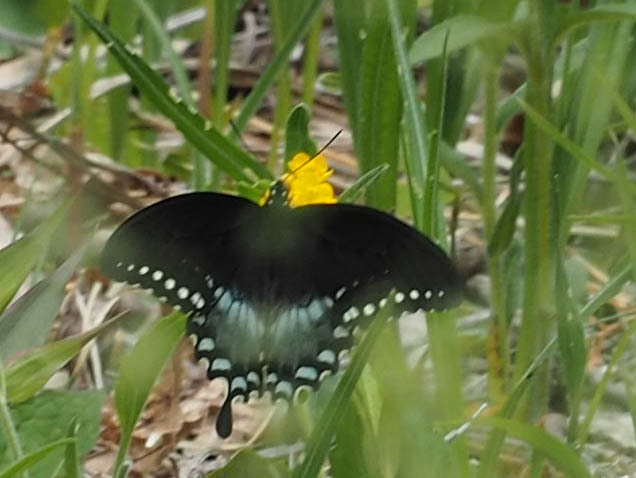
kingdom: Animalia
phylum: Arthropoda
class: Insecta
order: Lepidoptera
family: Papilionidae
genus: Papilio
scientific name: Papilio troilus
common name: Spicebush swallowtail
